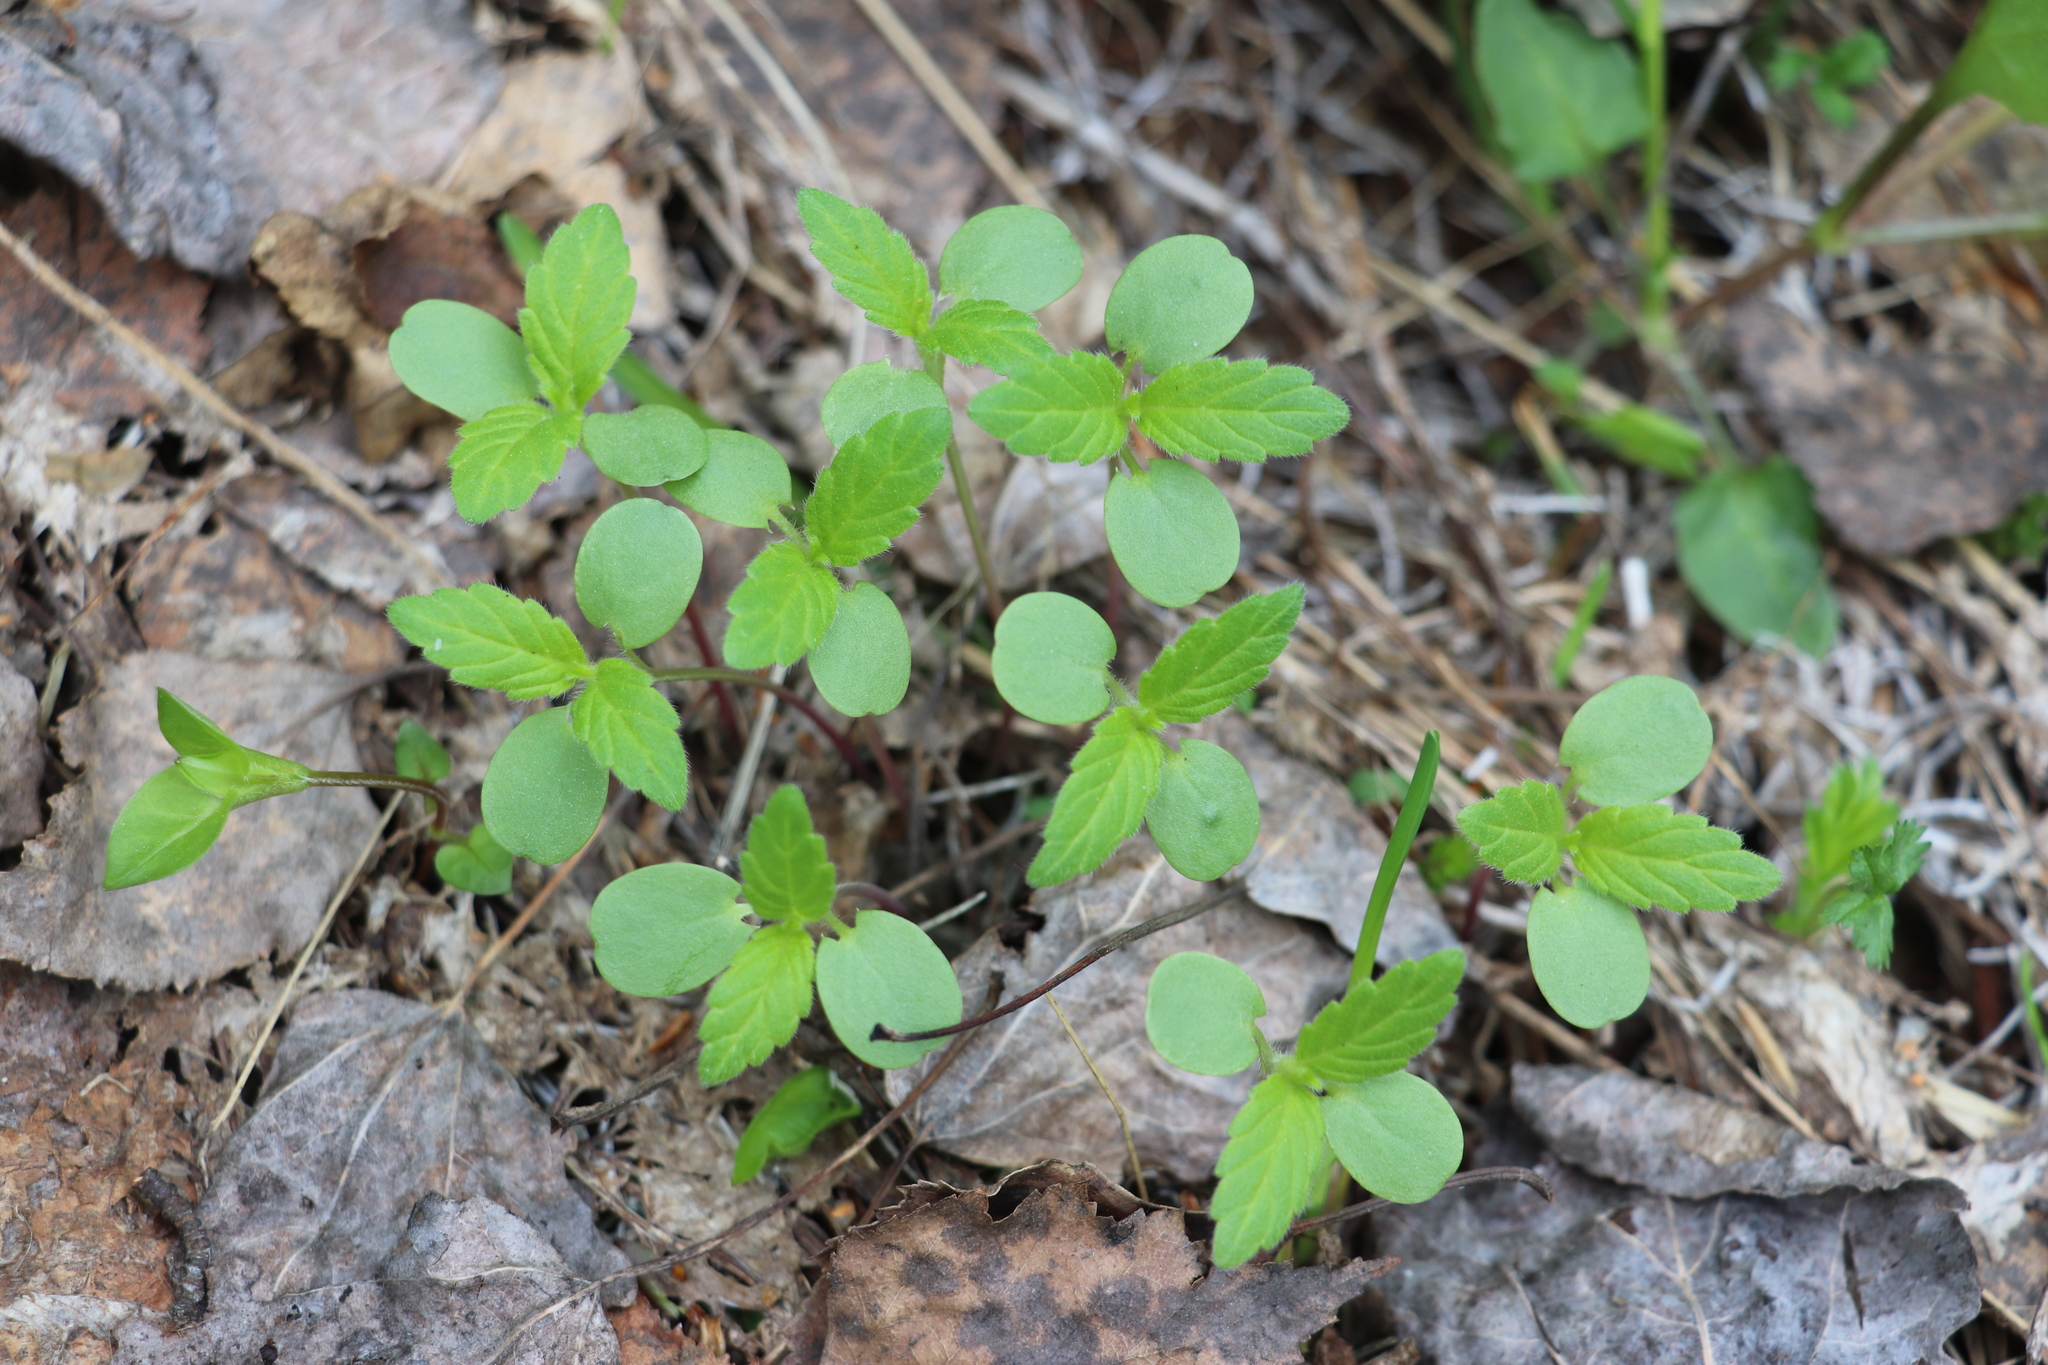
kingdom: Plantae
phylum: Tracheophyta
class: Magnoliopsida
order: Lamiales
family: Lamiaceae
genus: Galeopsis
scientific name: Galeopsis bifida
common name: Bifid hemp-nettle
